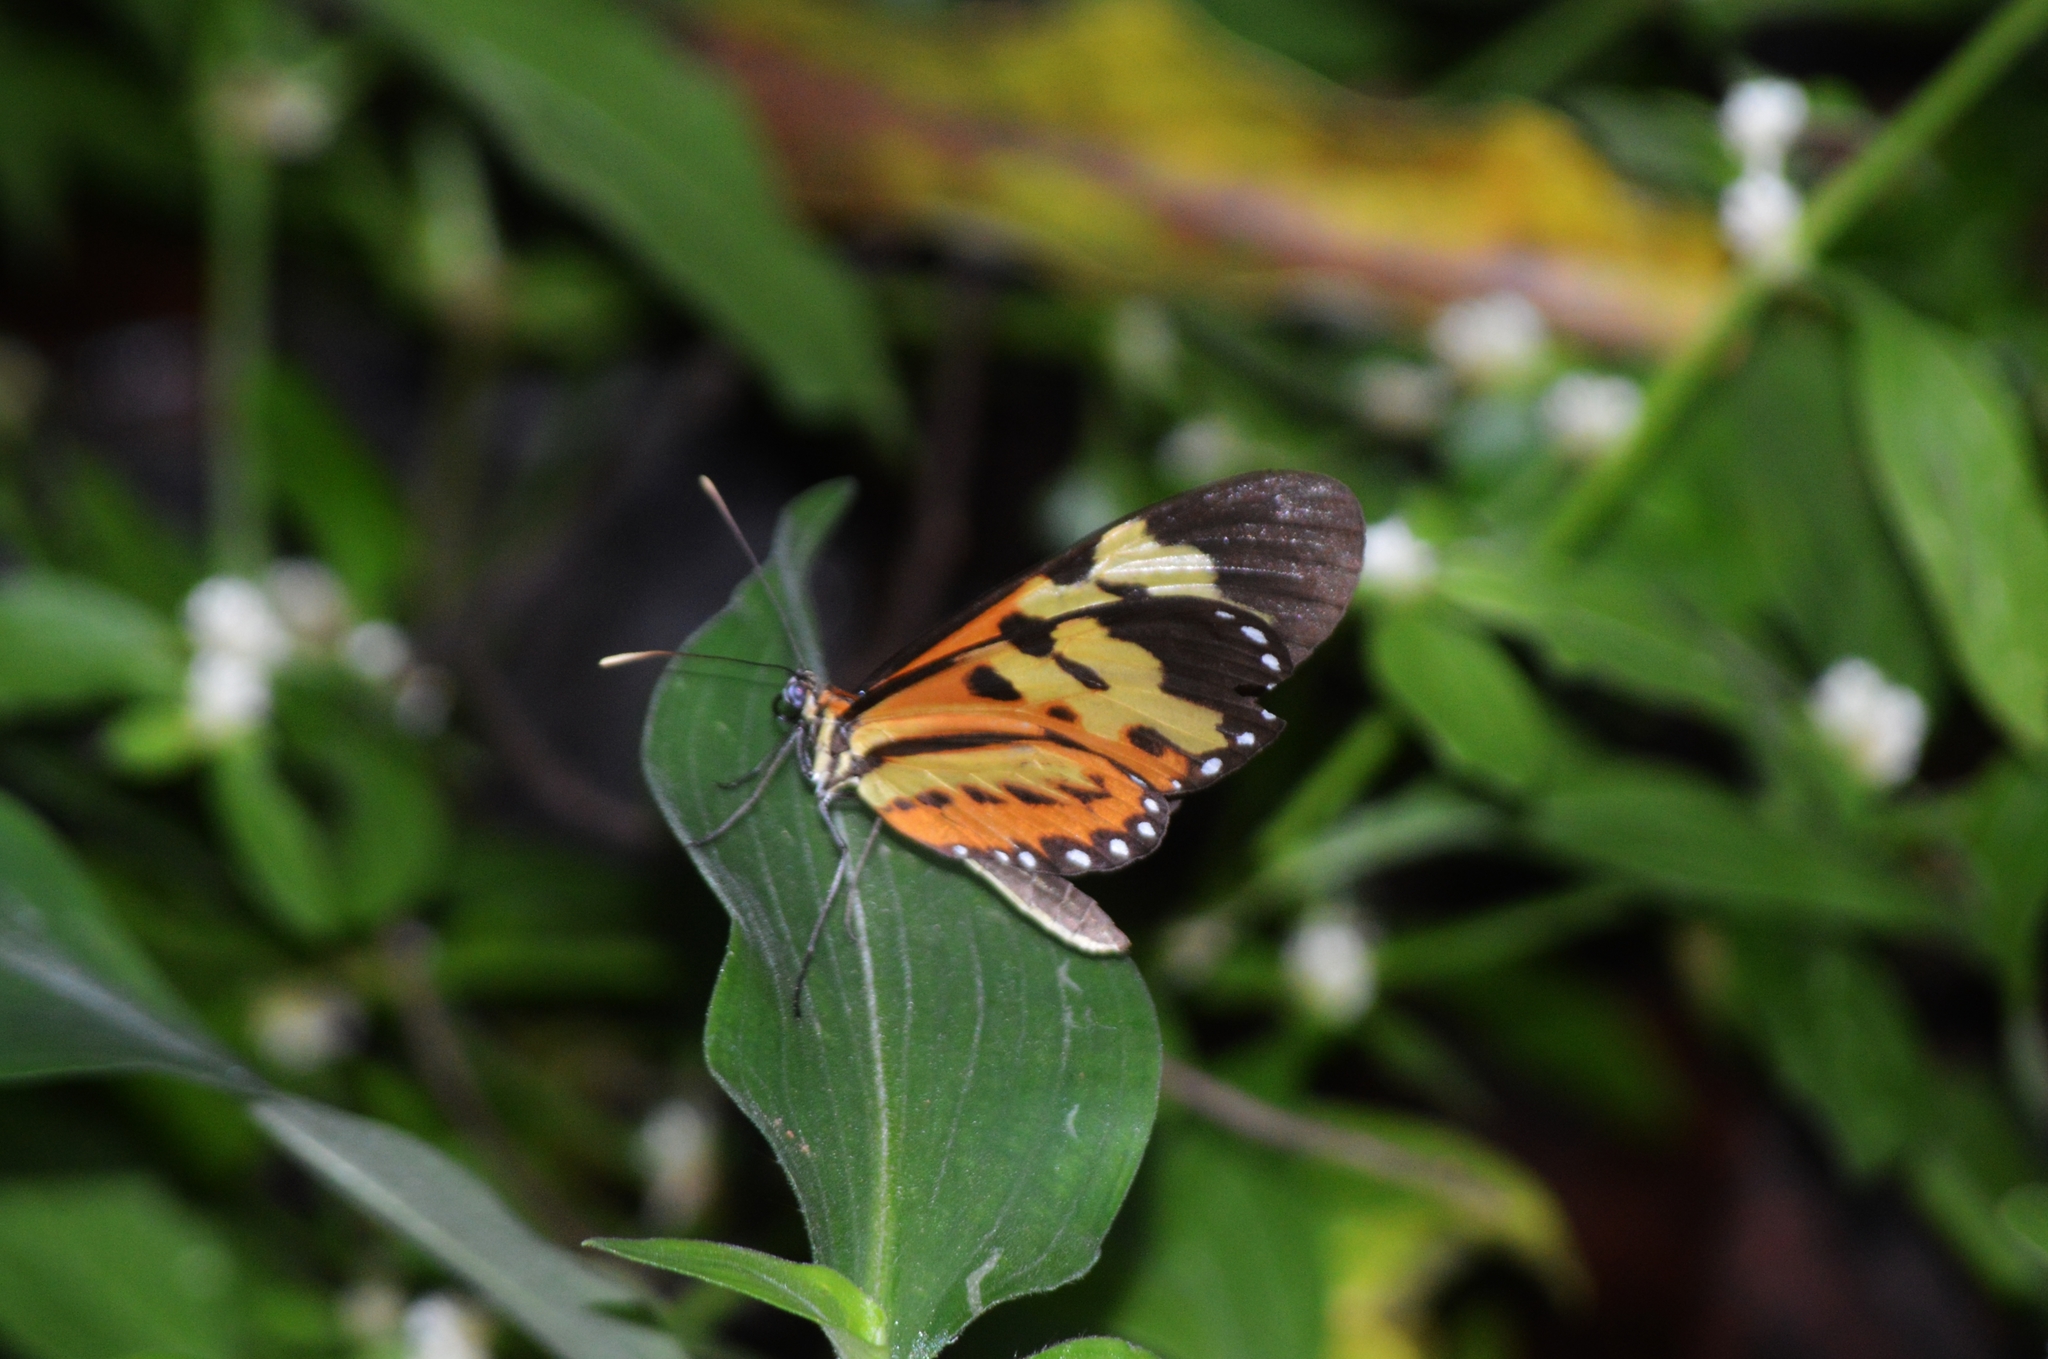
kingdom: Animalia
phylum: Arthropoda
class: Insecta
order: Lepidoptera
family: Nymphalidae
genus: Mechanitis
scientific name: Mechanitis polymnia
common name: Disturbed tigerwing
